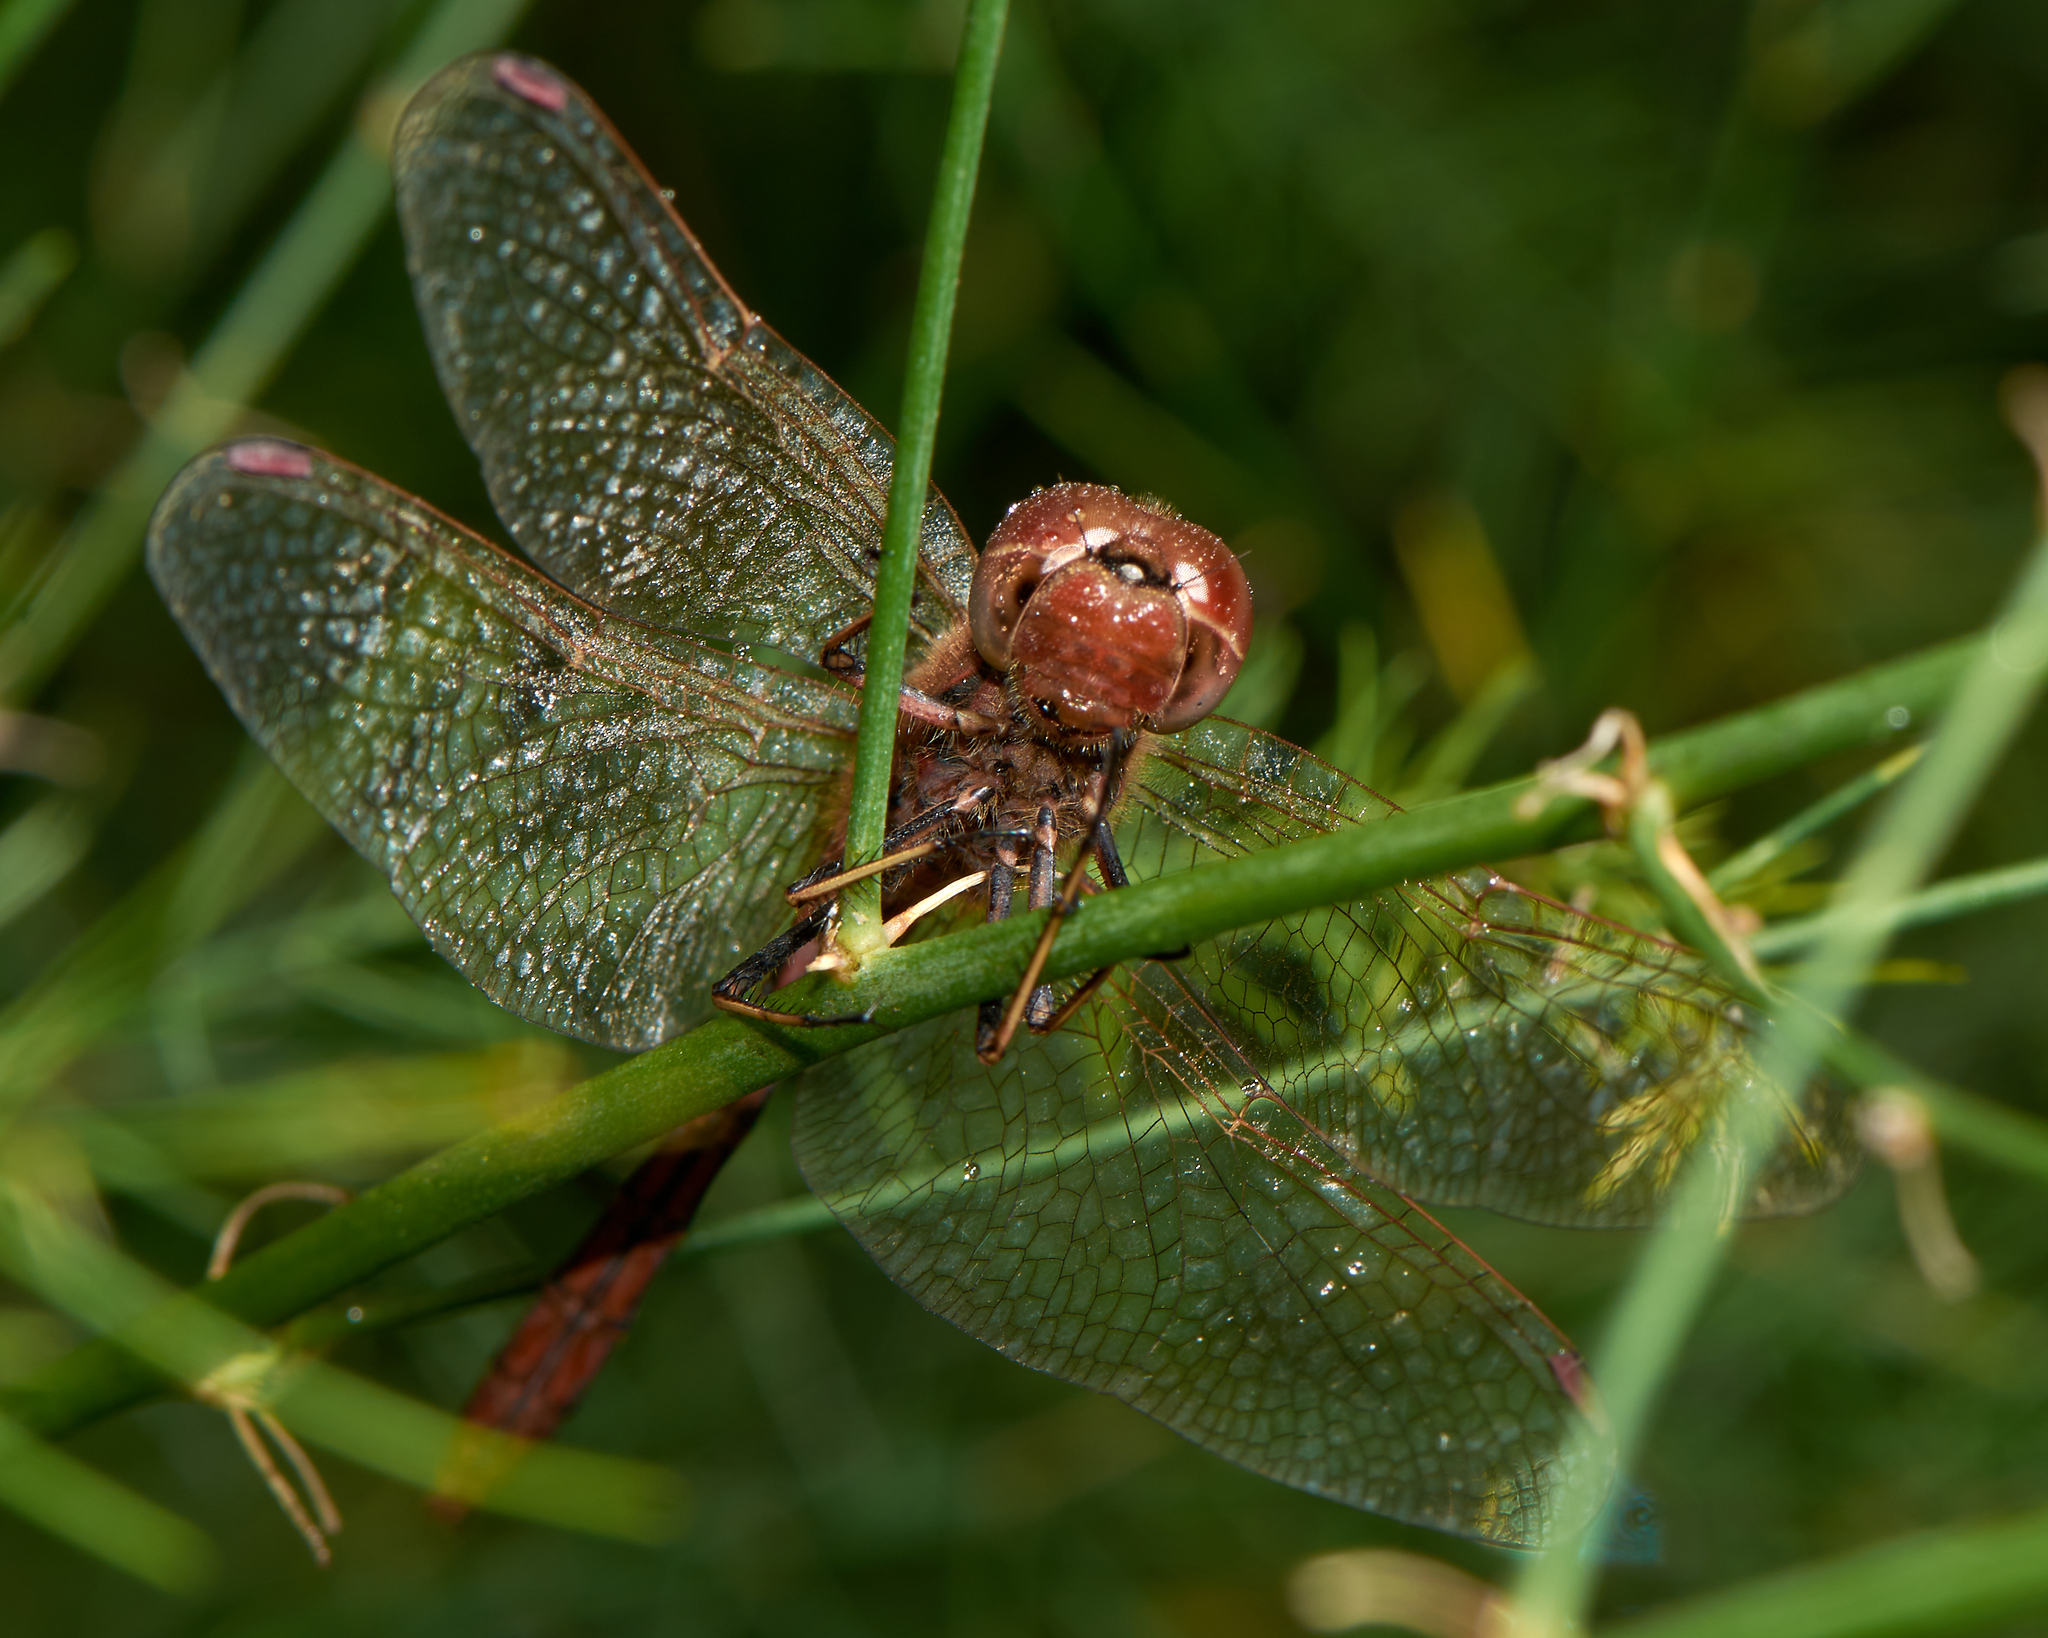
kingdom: Animalia
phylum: Arthropoda
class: Insecta
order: Odonata
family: Libellulidae
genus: Sympetrum
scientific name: Sympetrum vulgatum
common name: Vagrant darter
